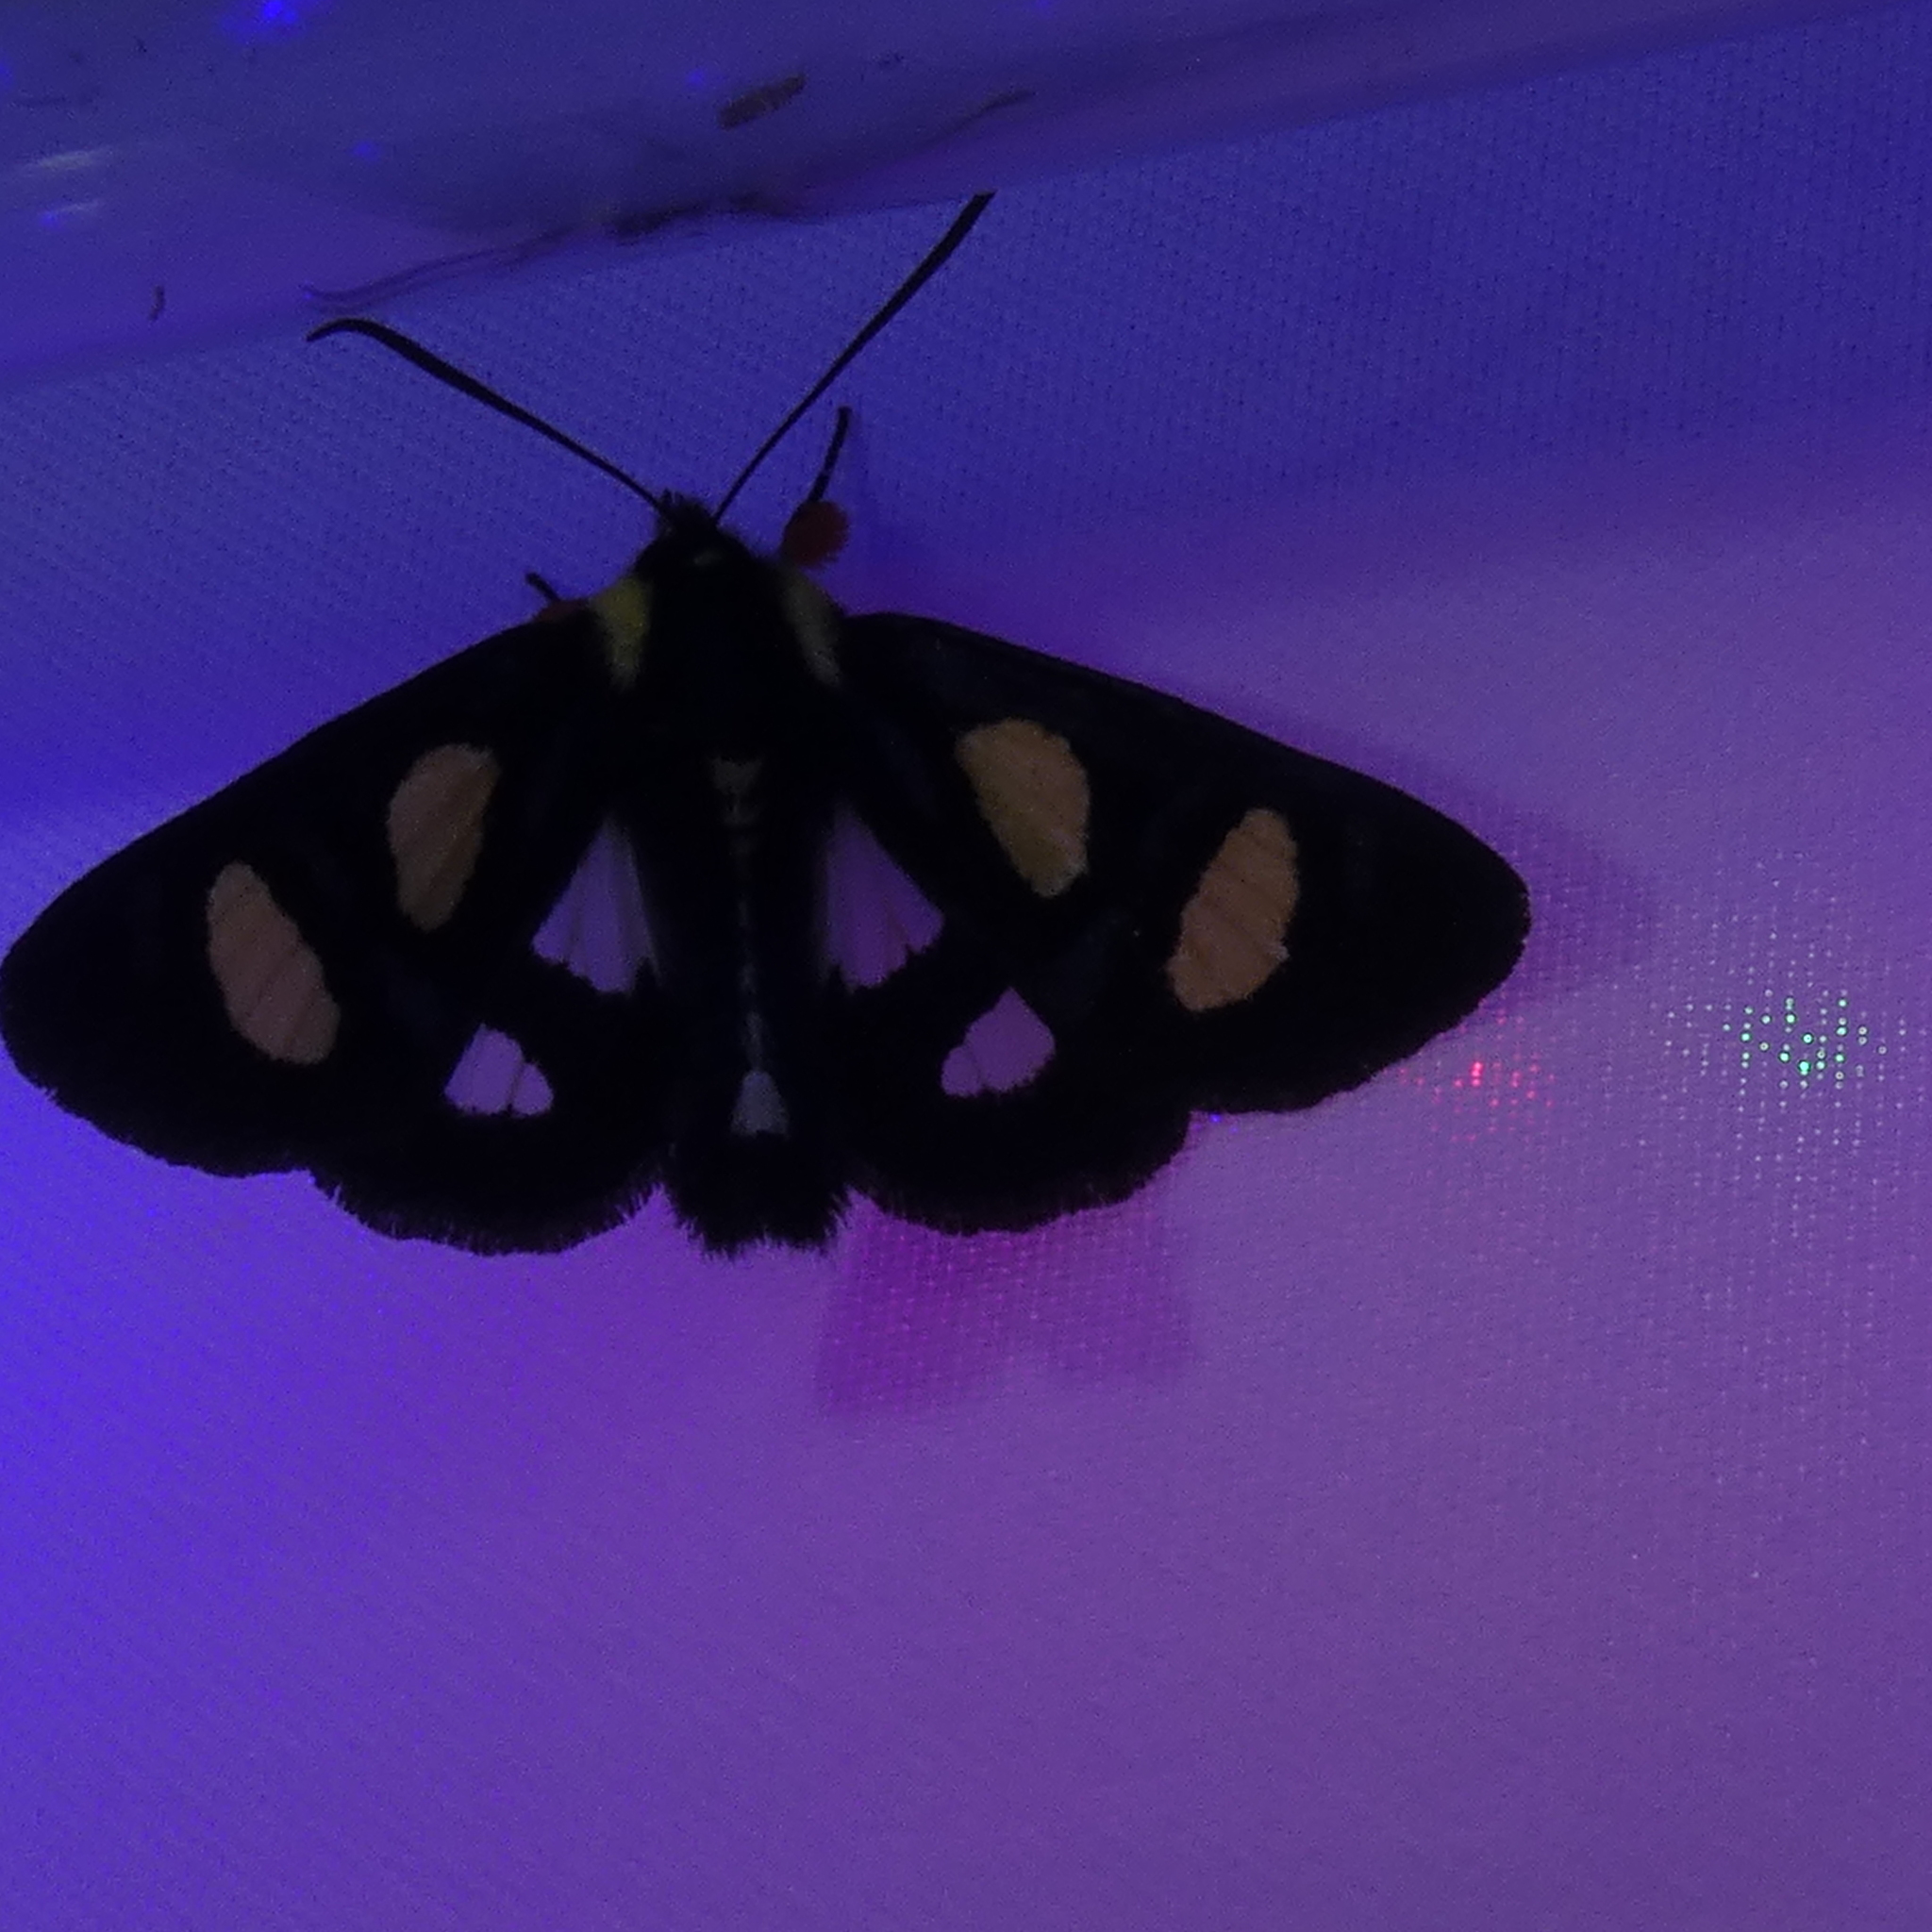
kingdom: Animalia
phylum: Arthropoda
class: Insecta
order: Lepidoptera
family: Noctuidae
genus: Alypia
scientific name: Alypia octomaculata
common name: Eight-spotted forester
